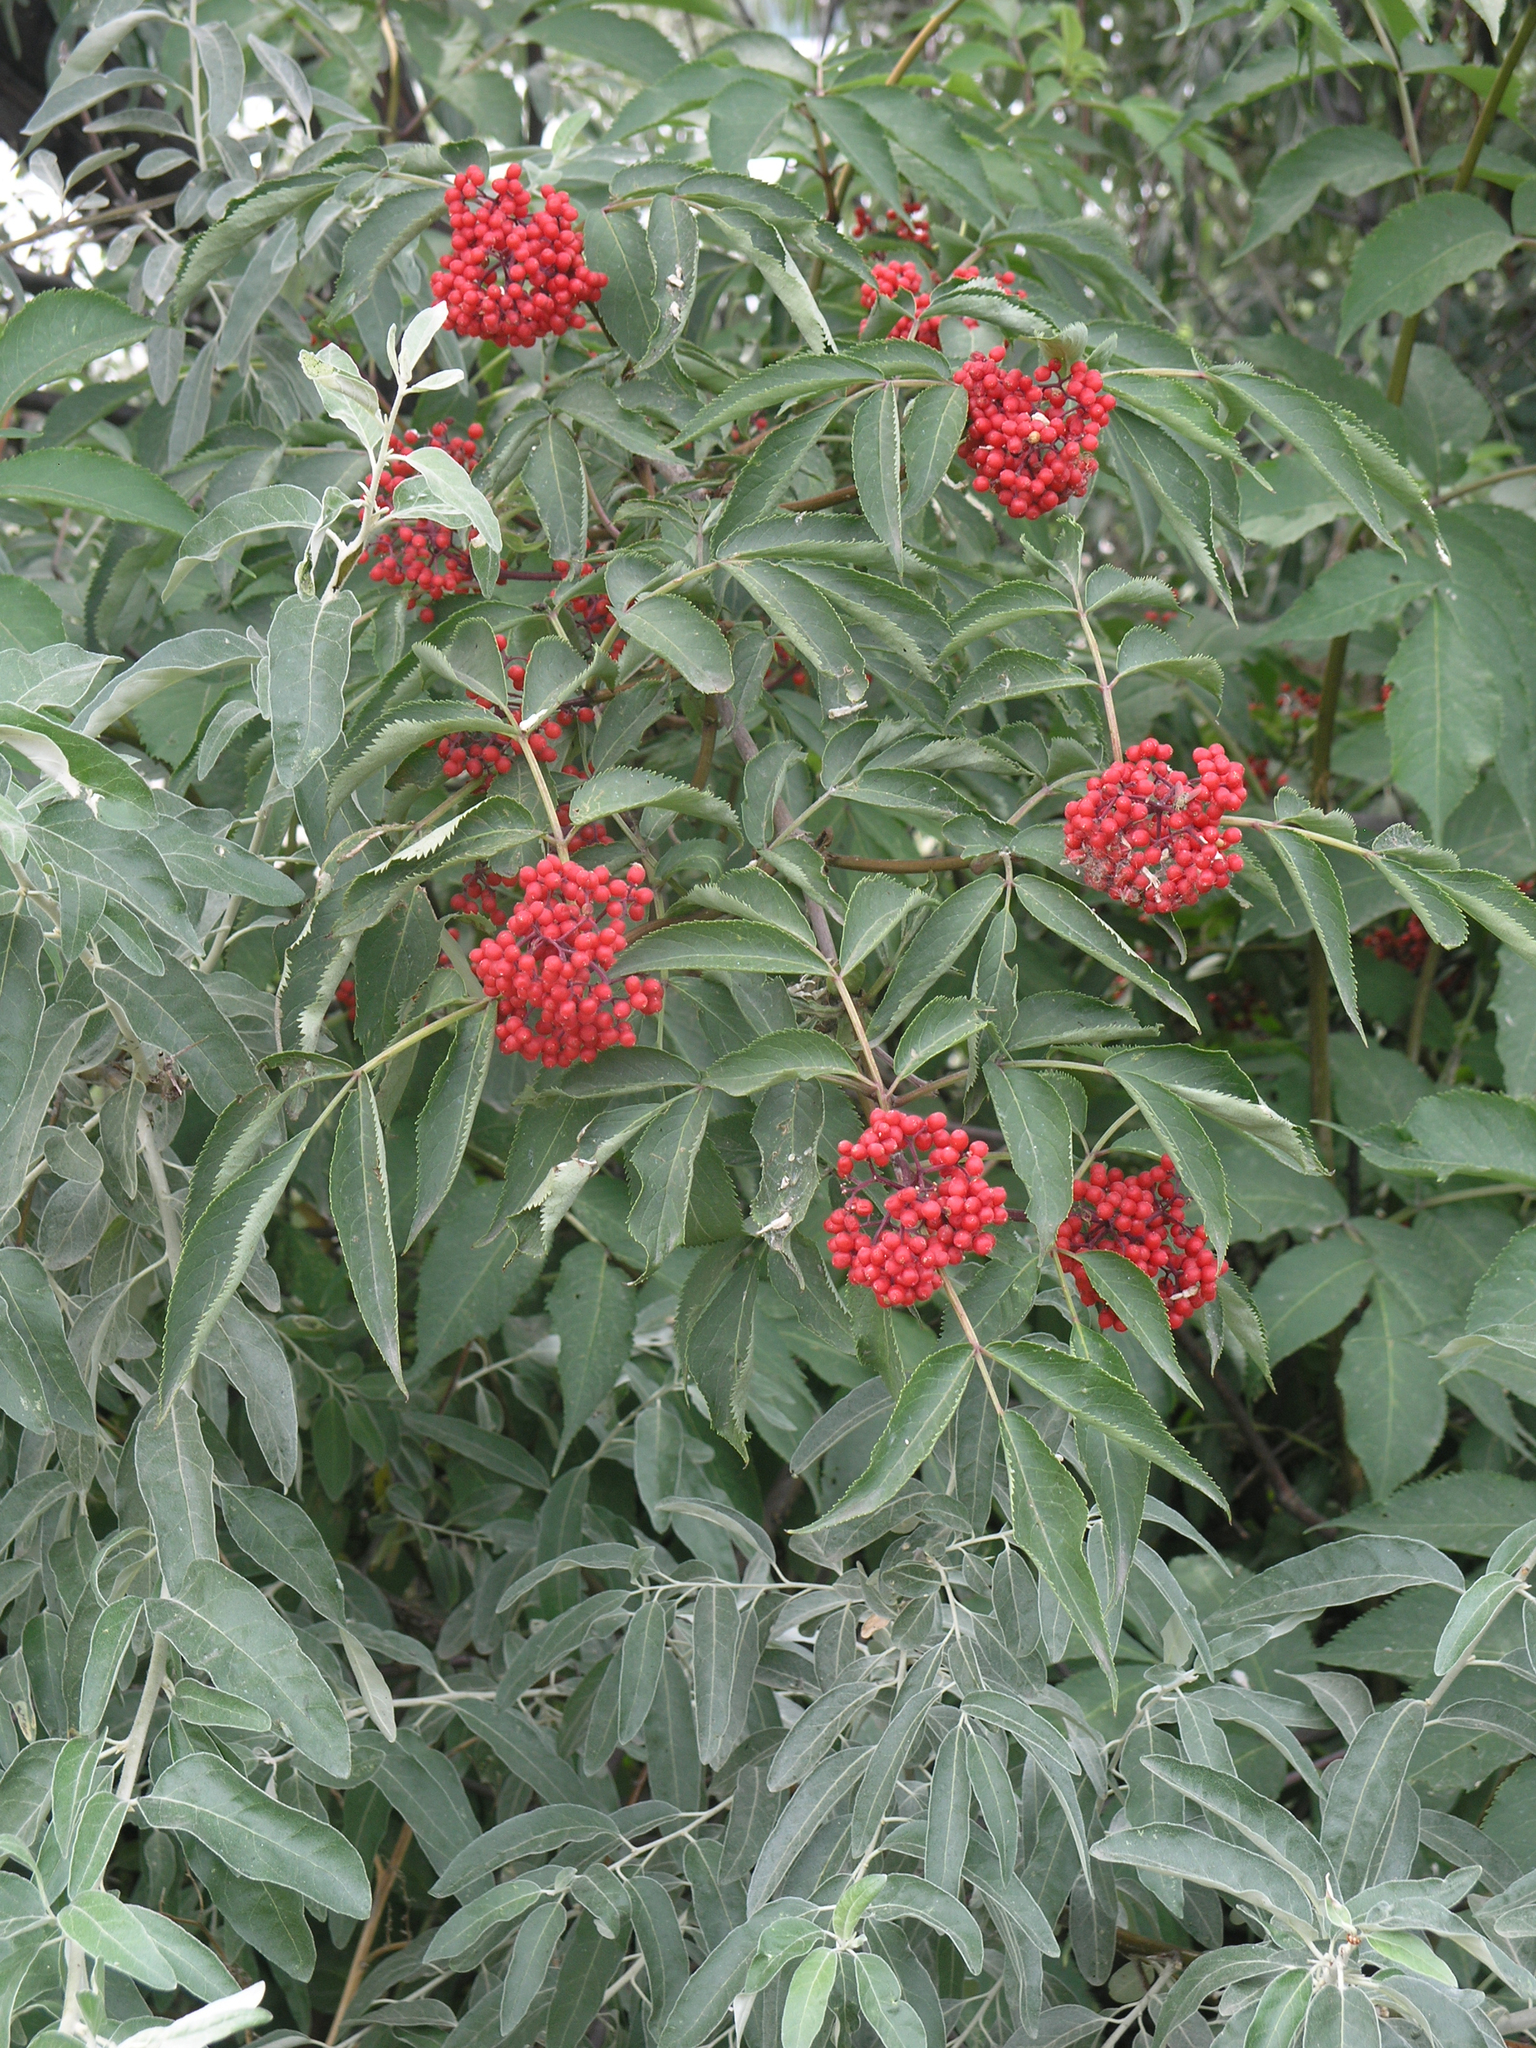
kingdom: Plantae
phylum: Tracheophyta
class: Magnoliopsida
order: Dipsacales
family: Viburnaceae
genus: Sambucus
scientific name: Sambucus racemosa
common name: Red-berried elder
